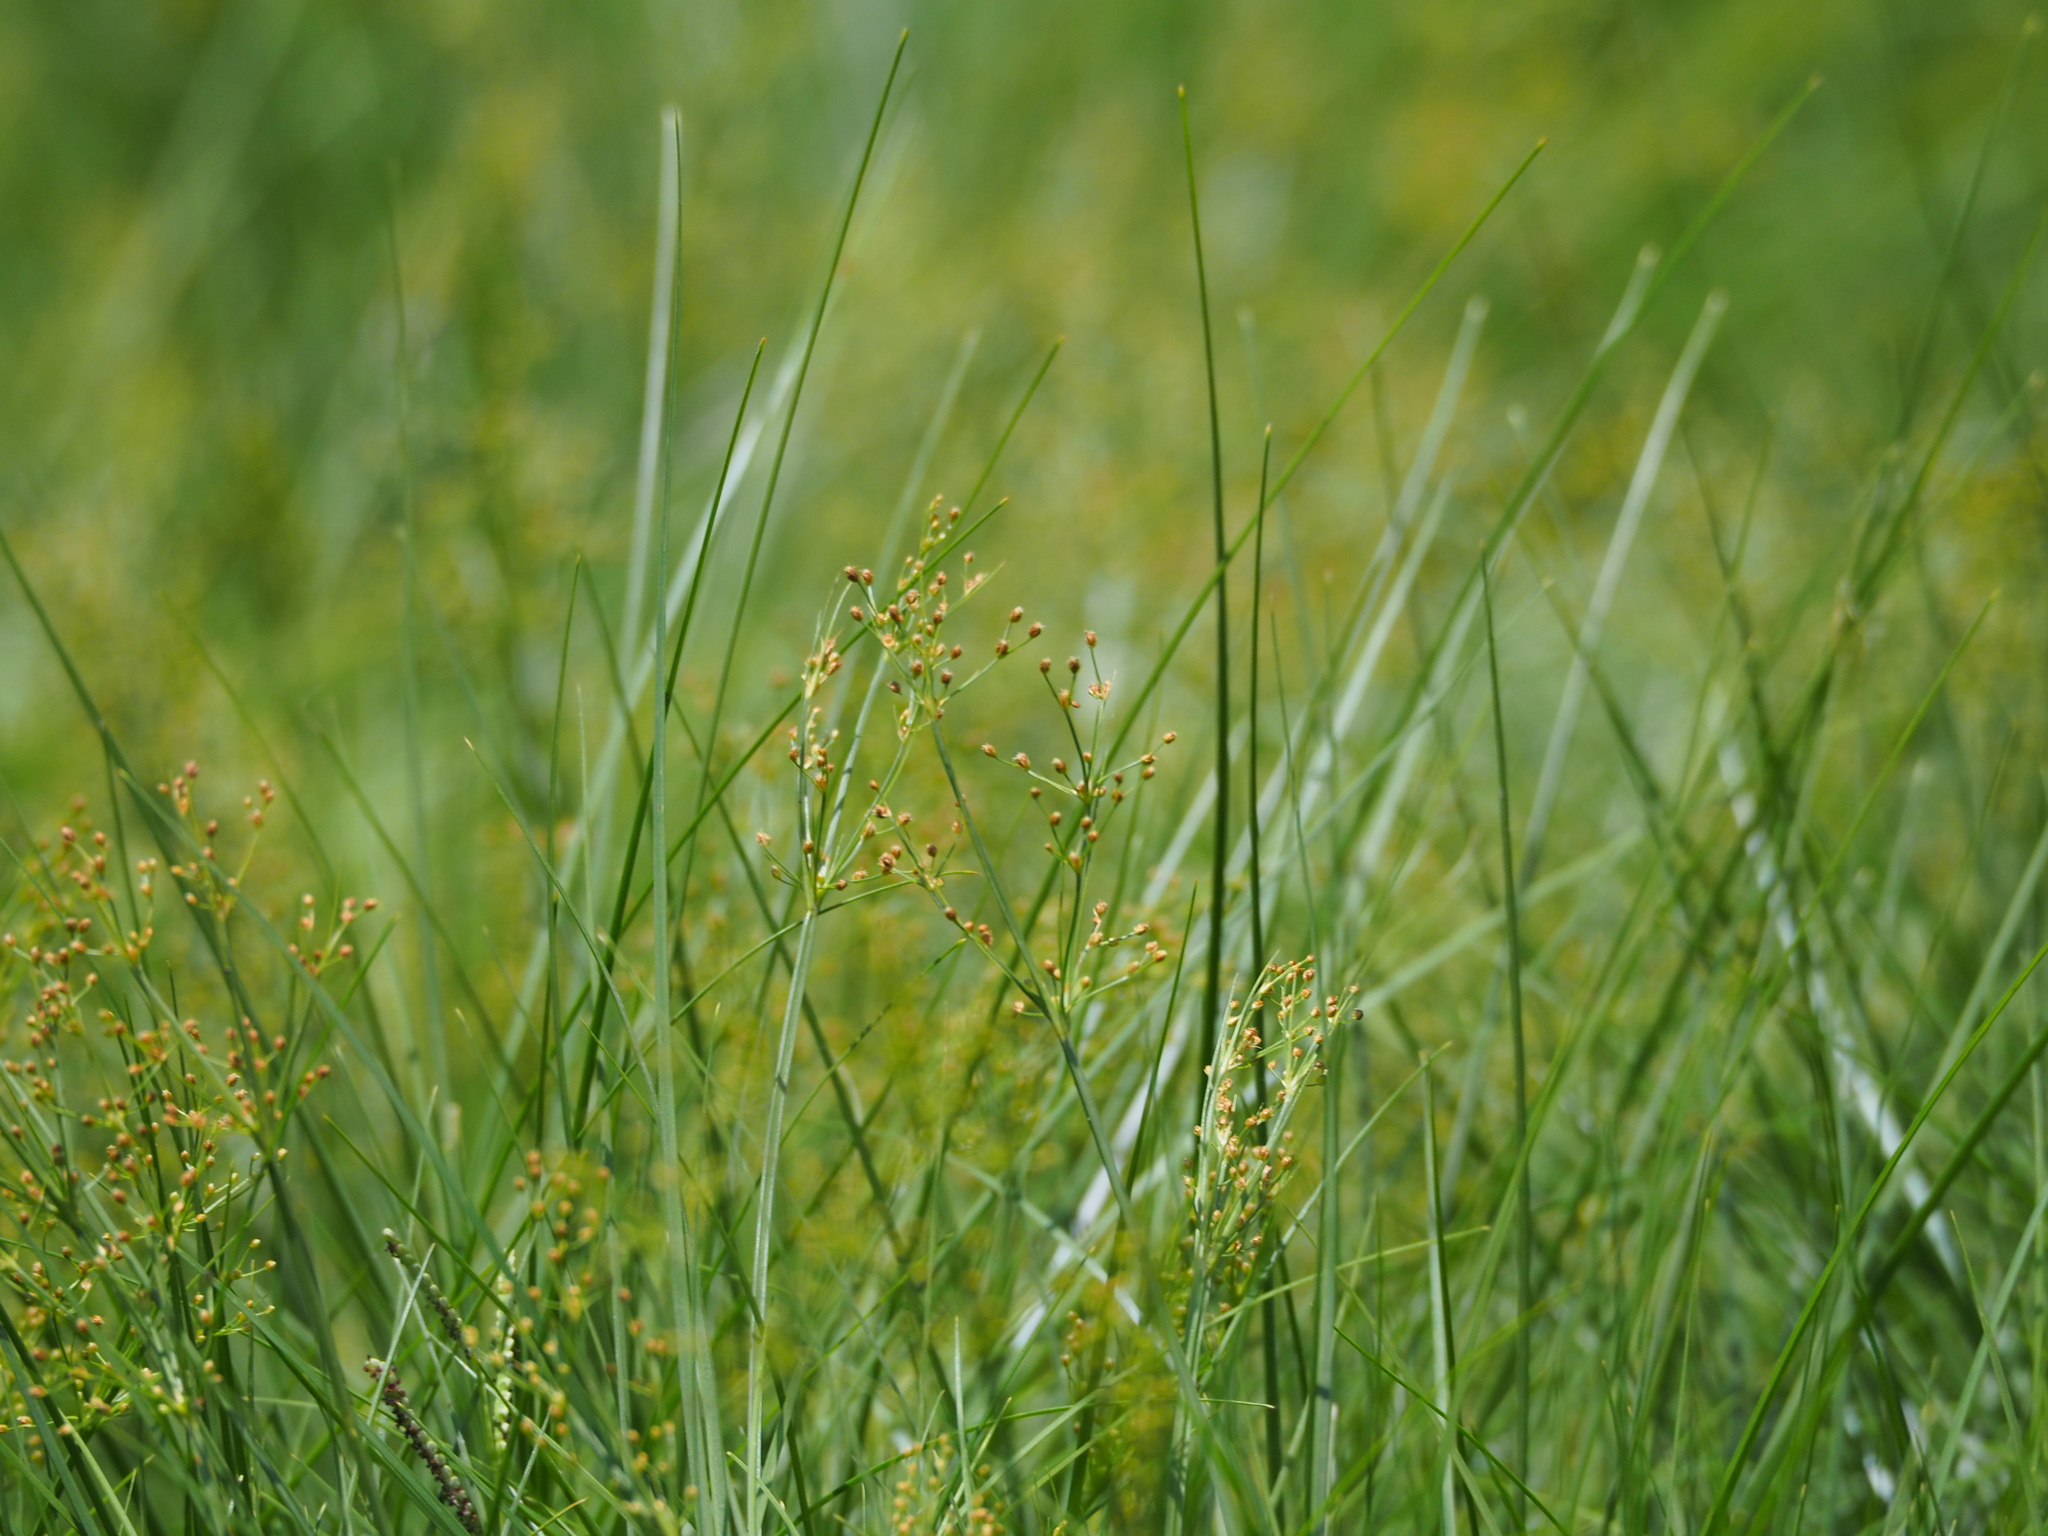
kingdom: Plantae
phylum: Tracheophyta
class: Liliopsida
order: Poales
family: Cyperaceae
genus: Fimbristylis
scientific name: Fimbristylis littoralis
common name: Fimbry
